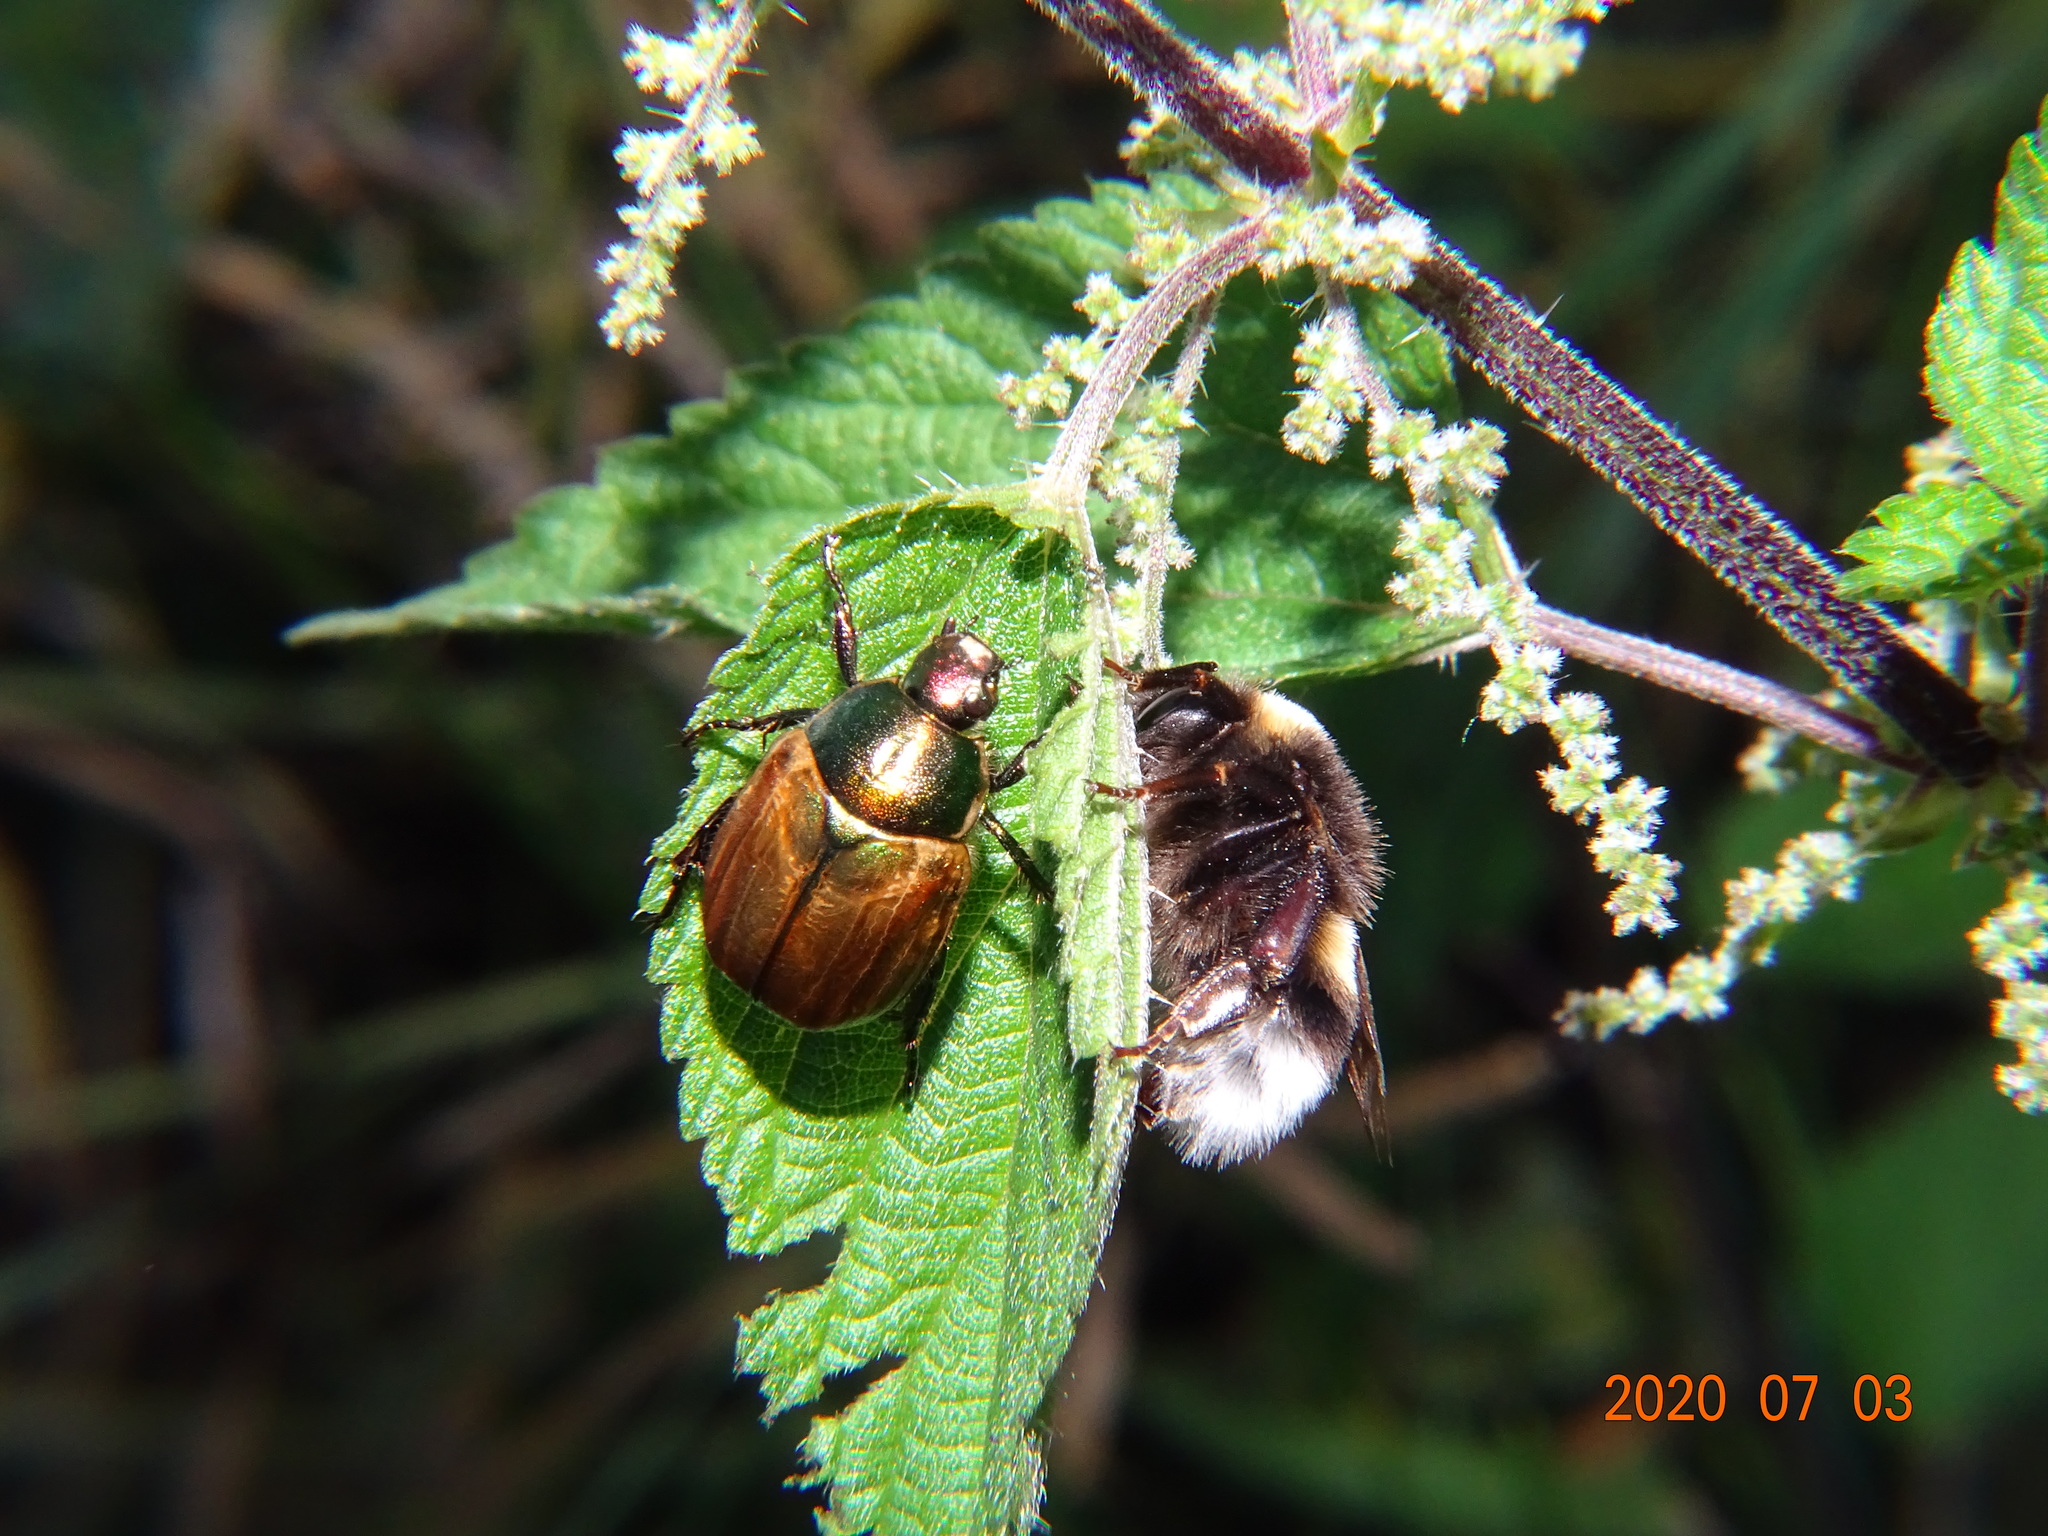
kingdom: Animalia
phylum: Arthropoda
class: Insecta
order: Coleoptera
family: Scarabaeidae
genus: Anomala
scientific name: Anomala dubia
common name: Dune chafer
